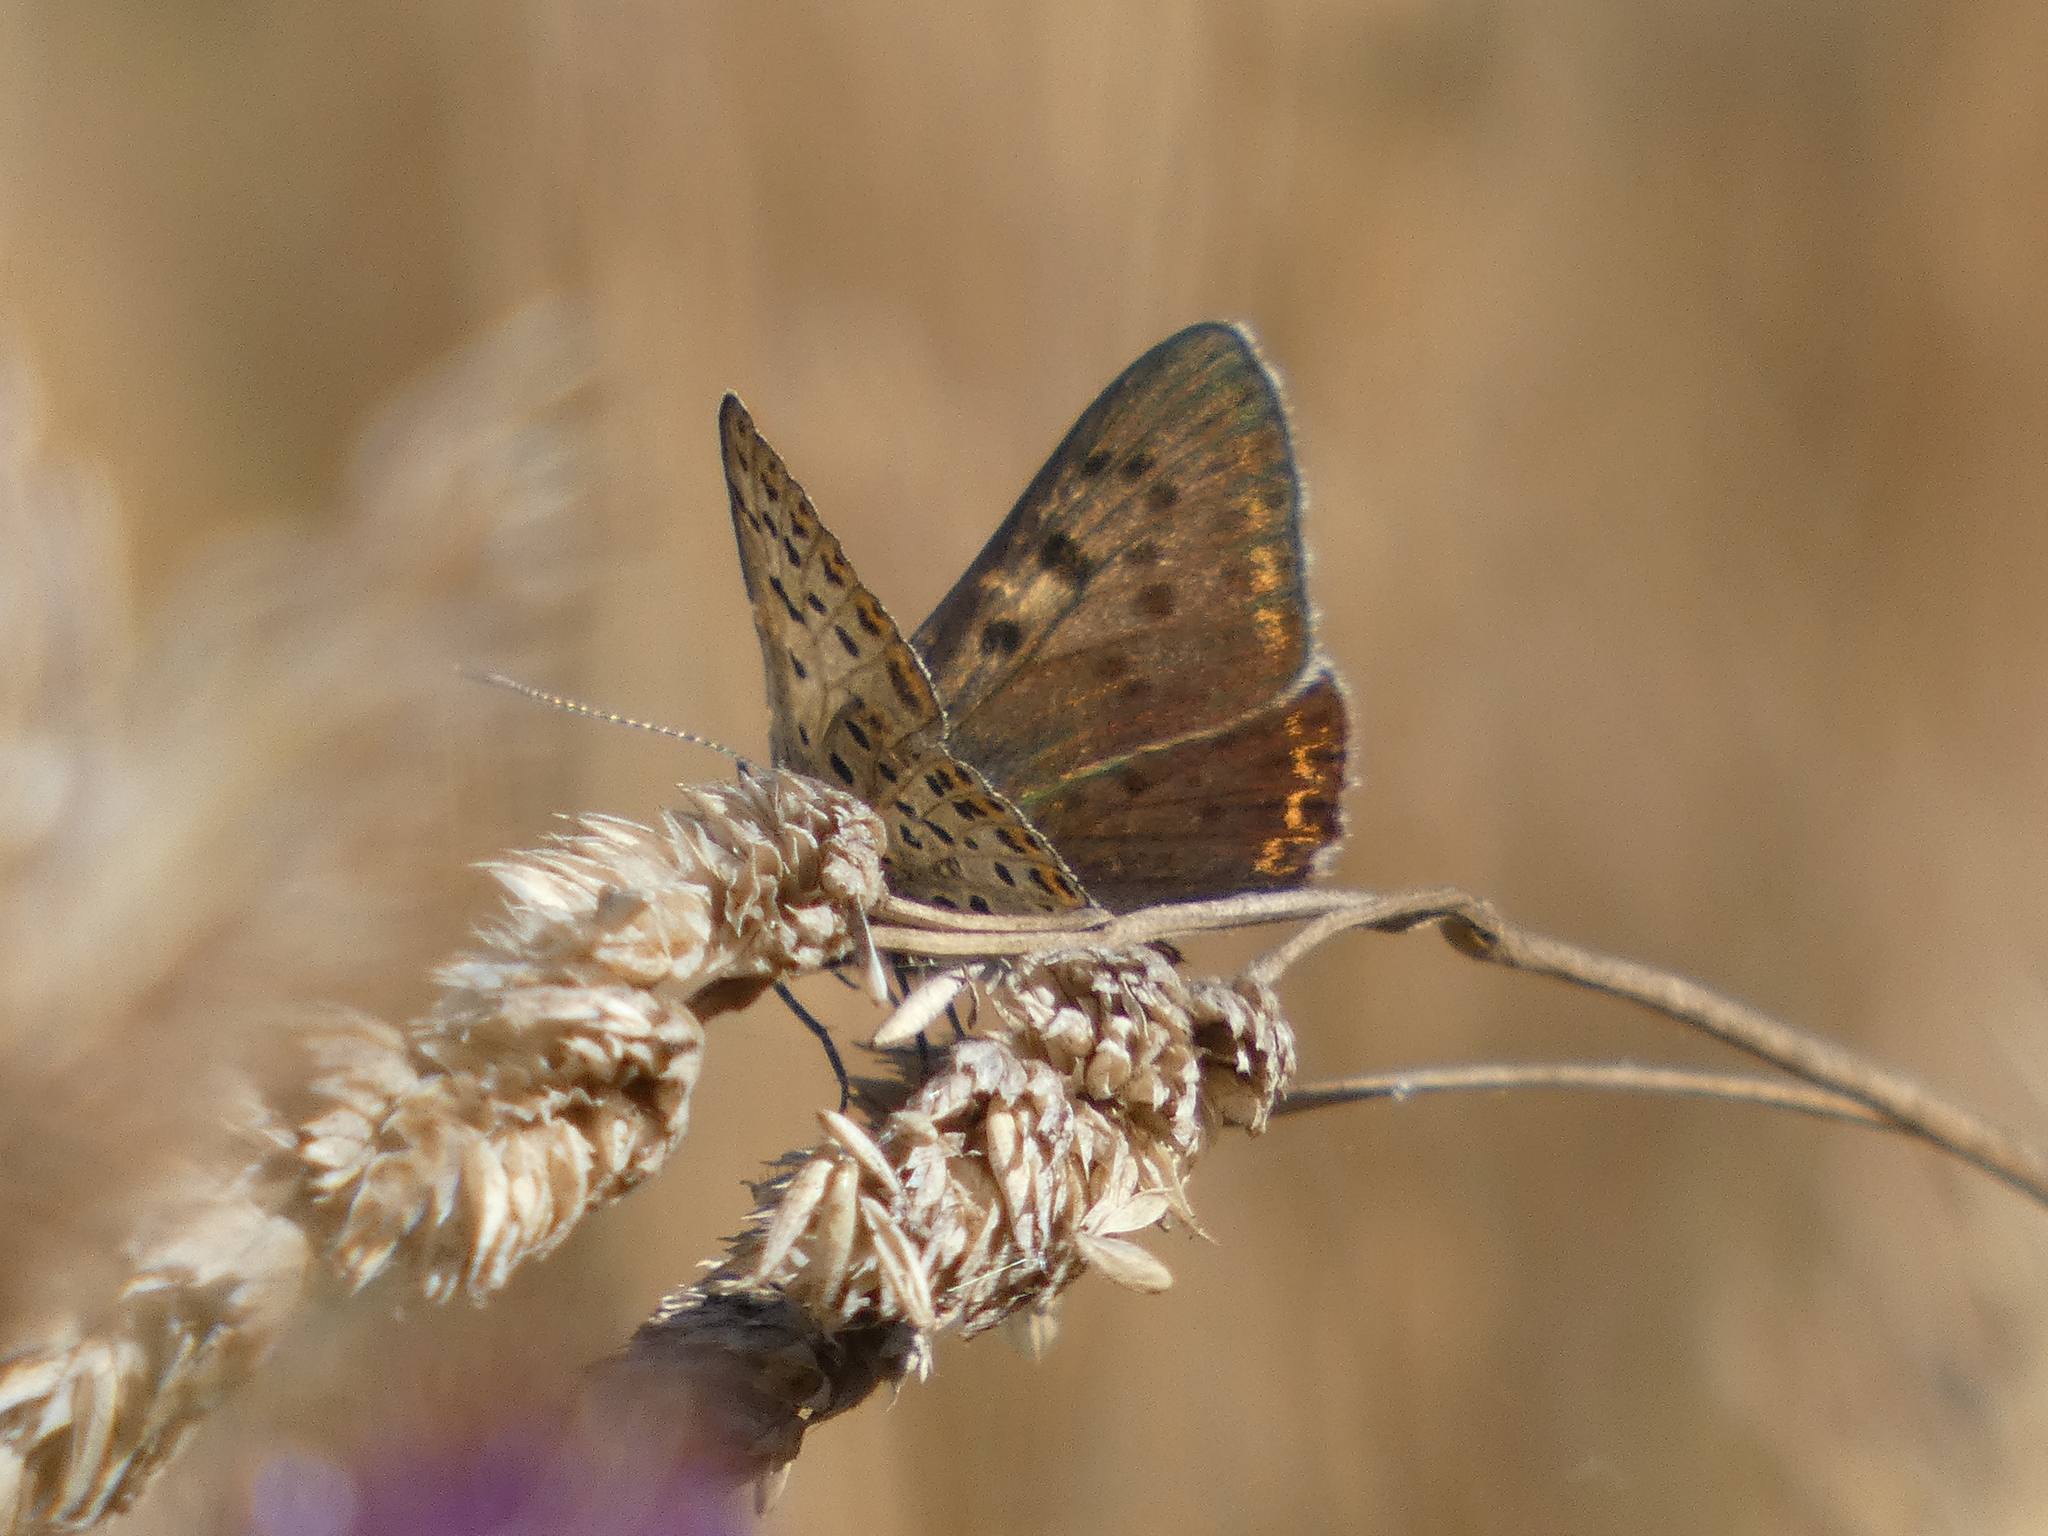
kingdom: Animalia
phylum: Arthropoda
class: Insecta
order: Lepidoptera
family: Lycaenidae
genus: Loweia
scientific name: Loweia tityrus
